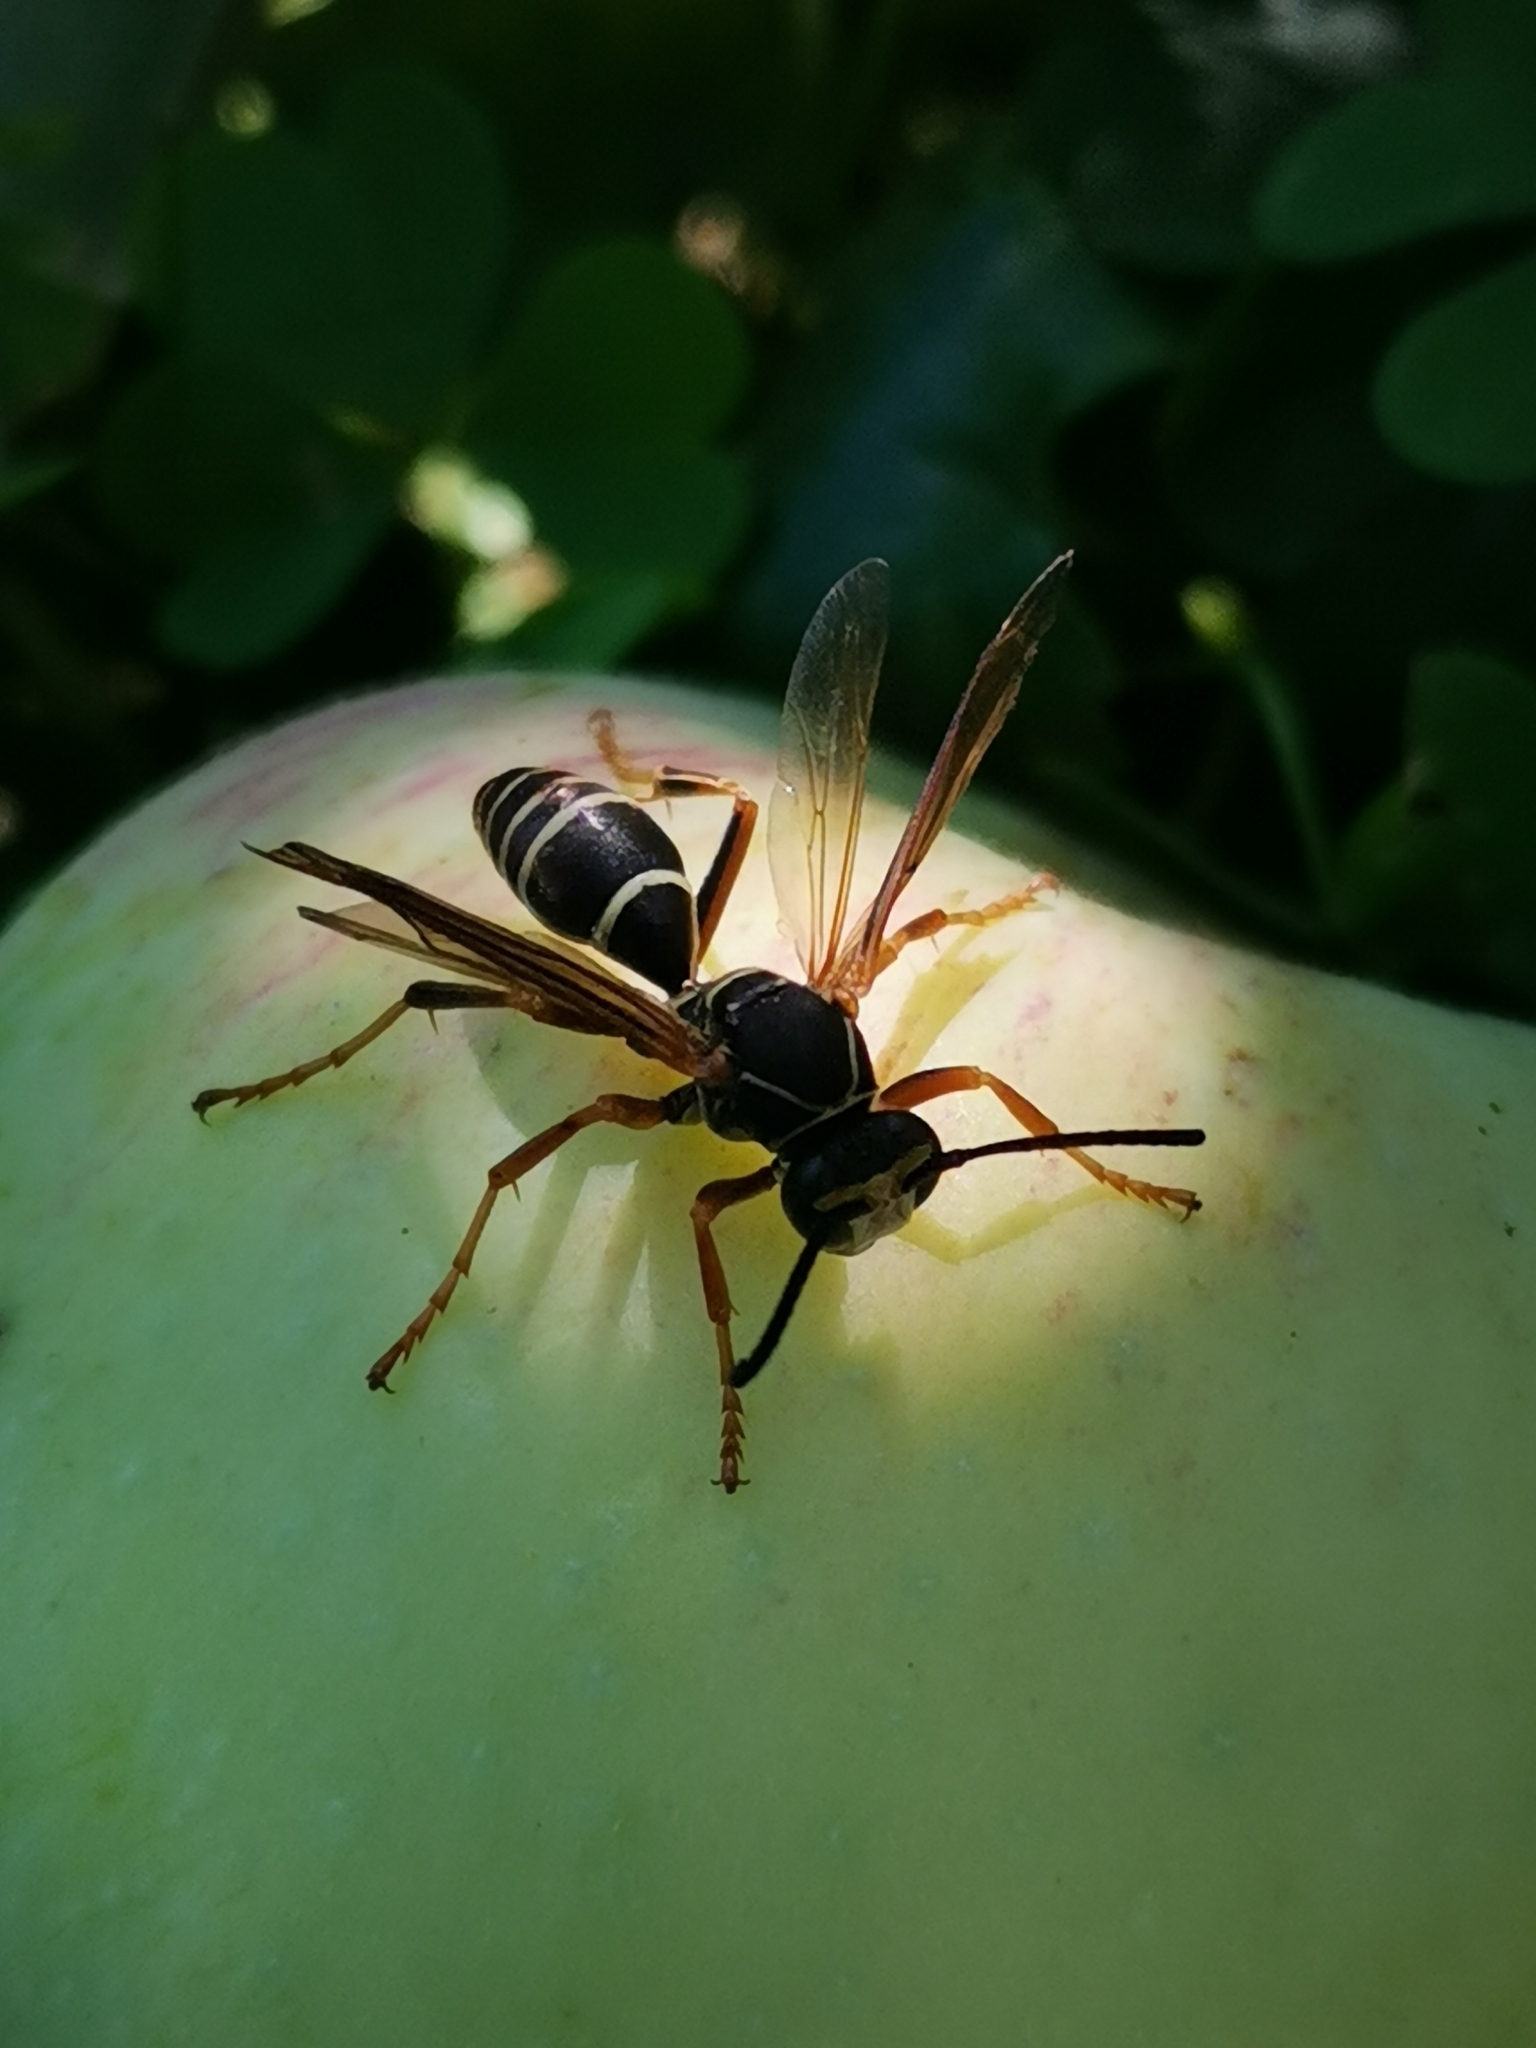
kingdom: Animalia
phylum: Arthropoda
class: Insecta
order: Hymenoptera
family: Eumenidae
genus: Polistes
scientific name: Polistes fuscatus
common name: Dark paper wasp
